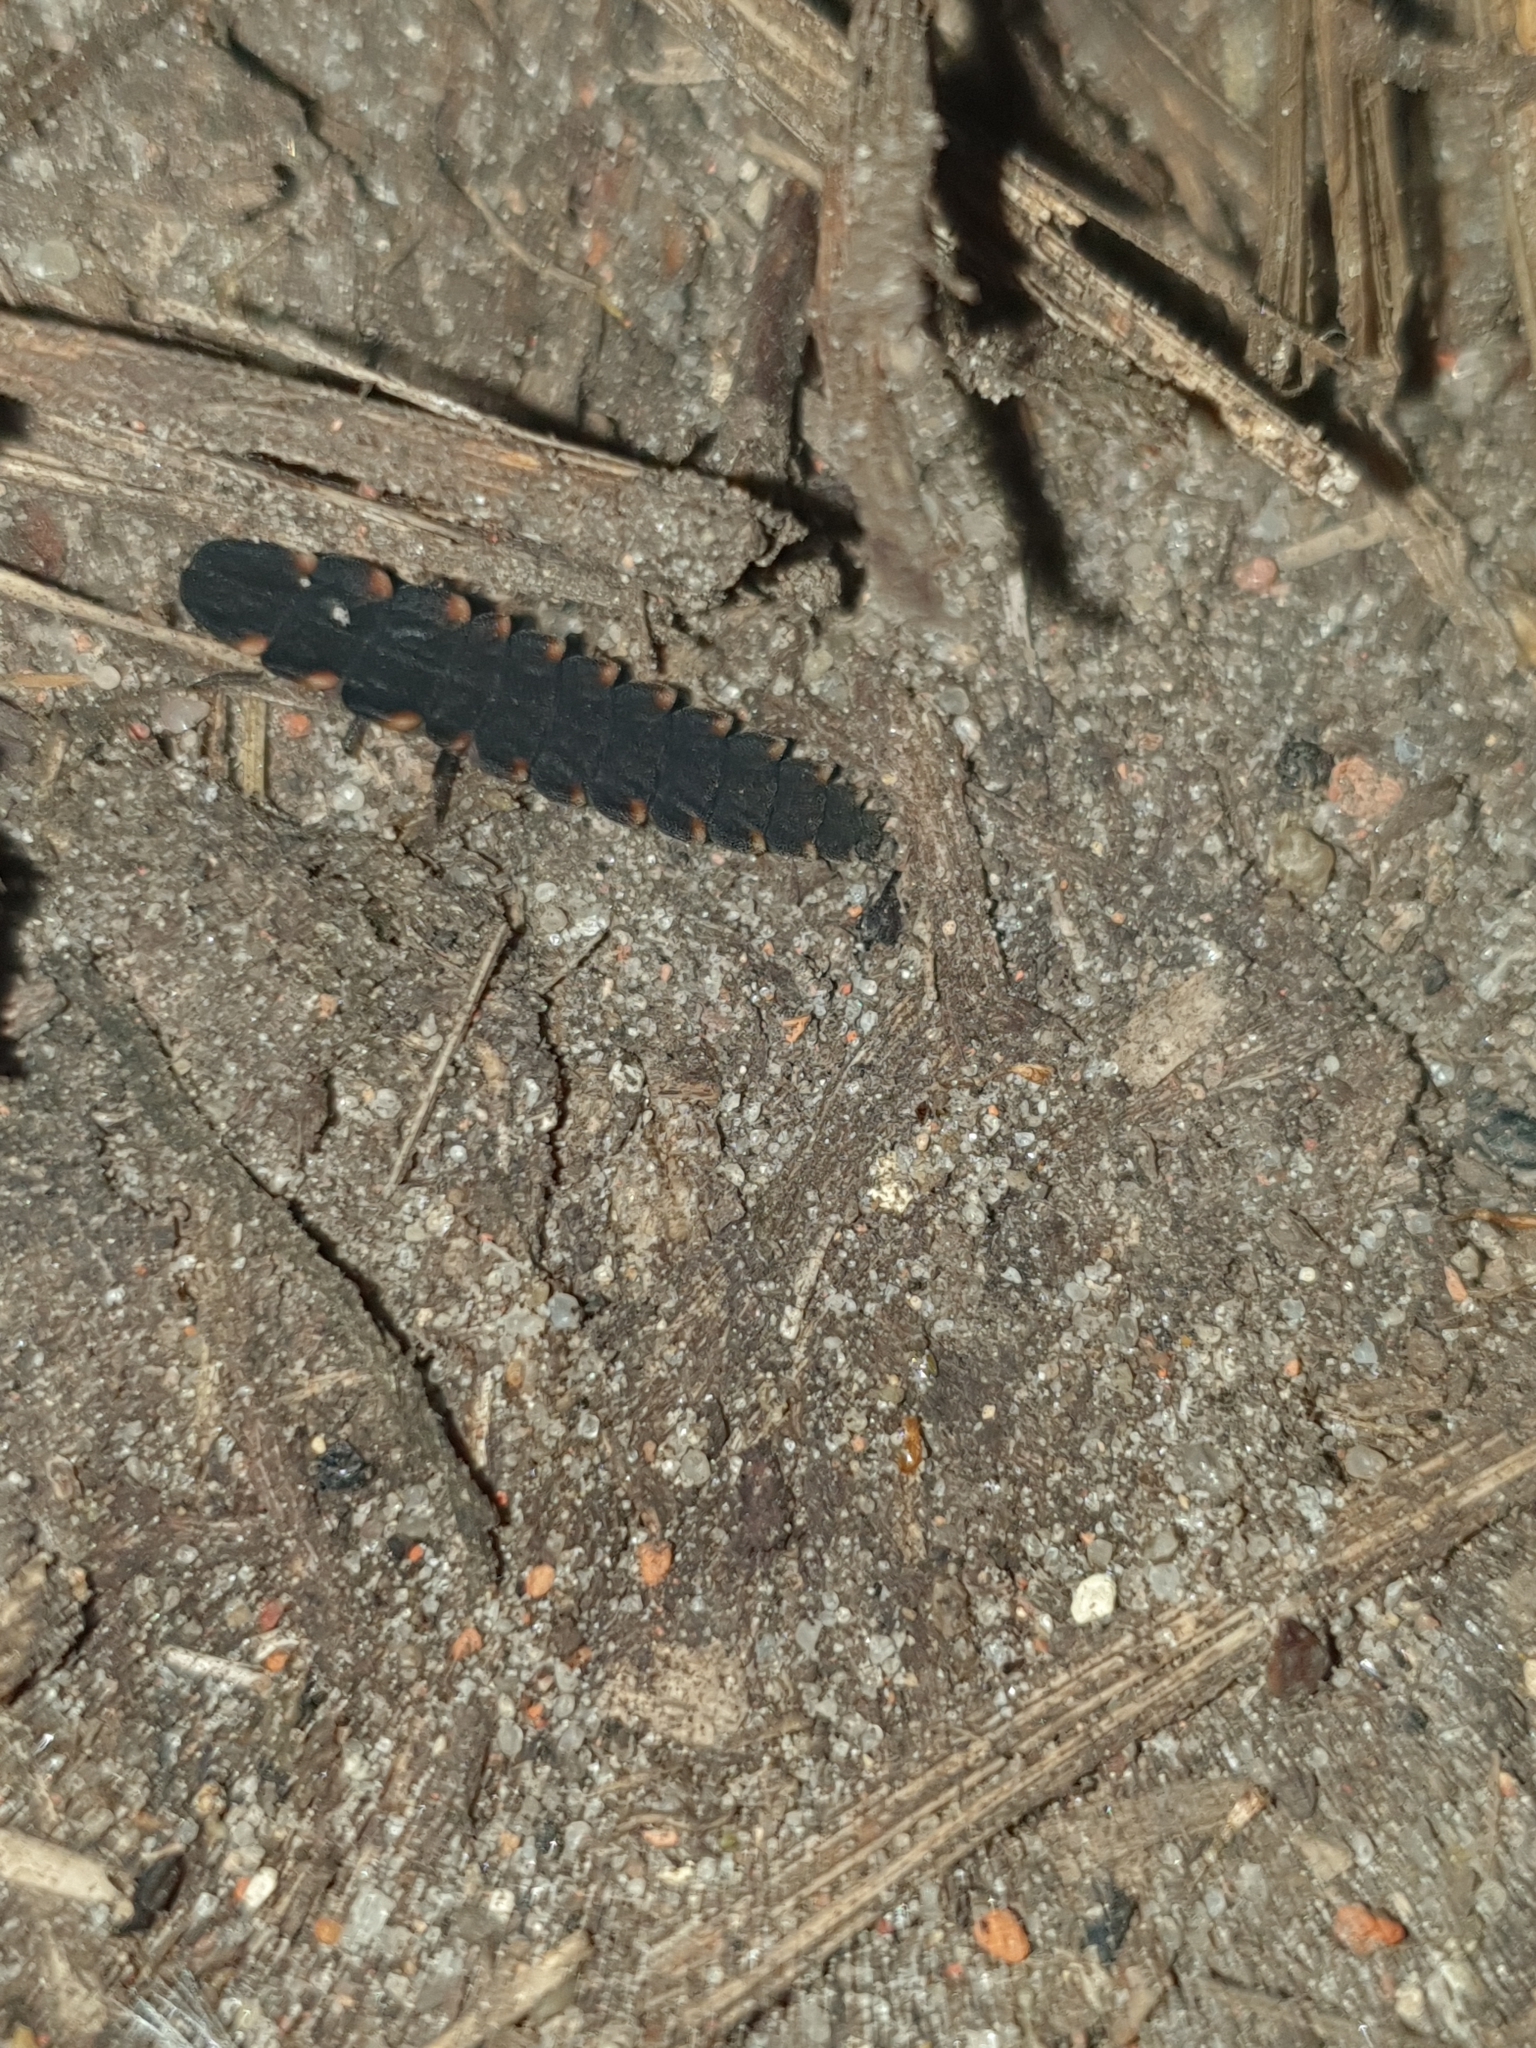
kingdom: Animalia
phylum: Arthropoda
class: Insecta
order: Coleoptera
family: Lampyridae
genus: Lampyris
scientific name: Lampyris noctiluca
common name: Glow-worm
